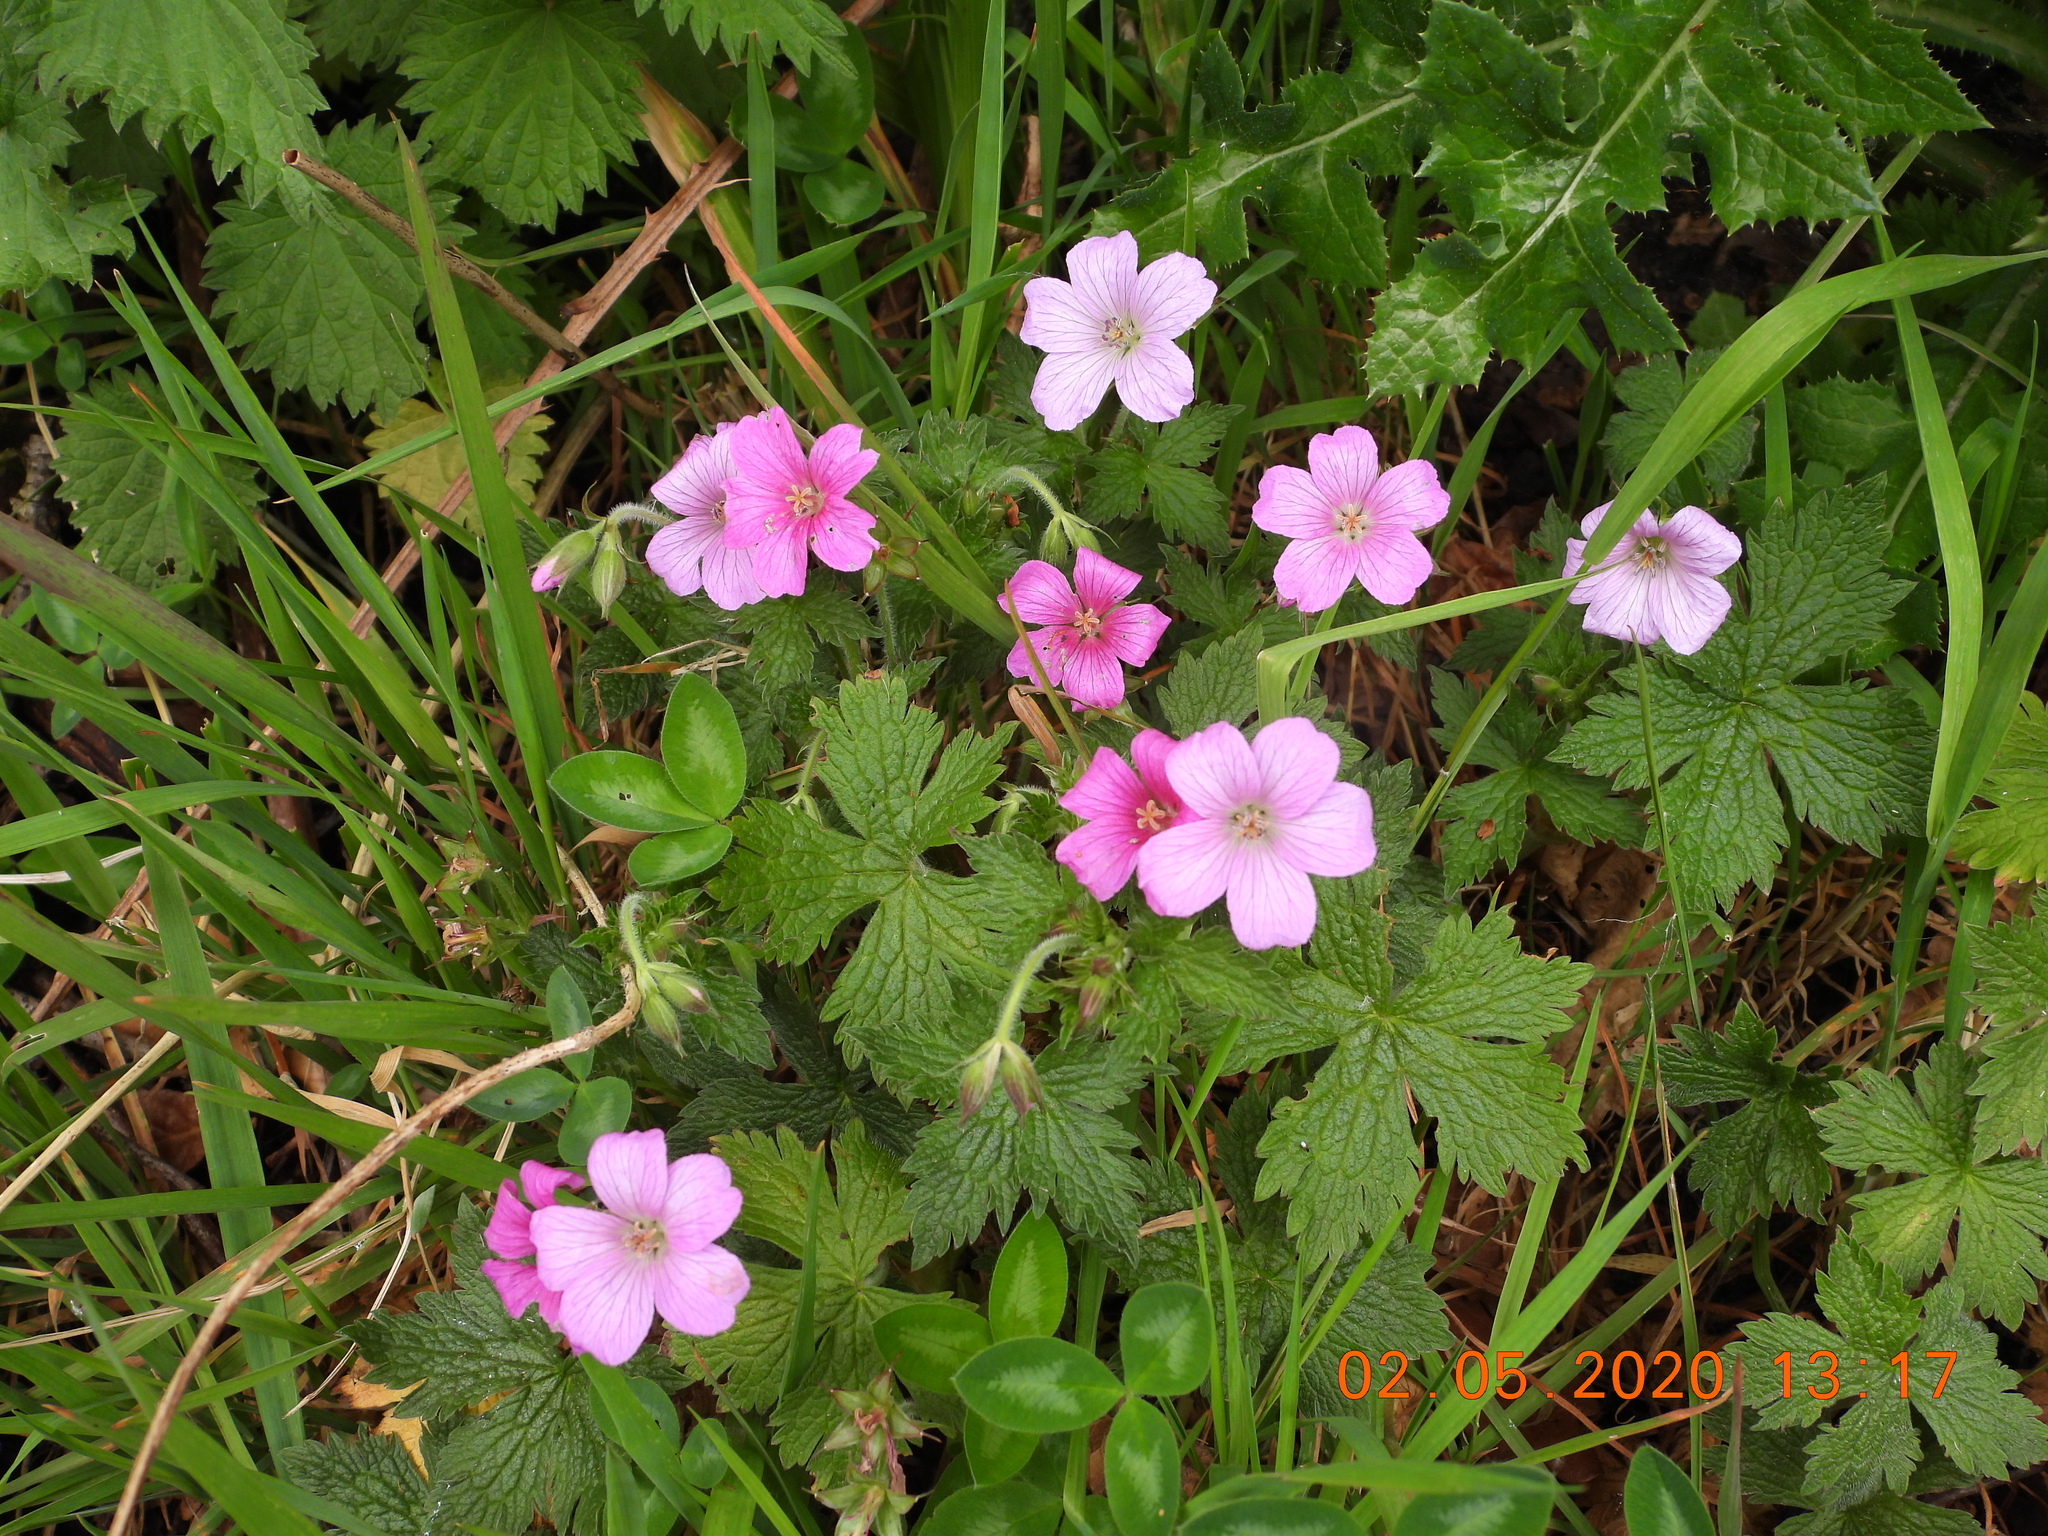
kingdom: Plantae
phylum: Tracheophyta
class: Magnoliopsida
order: Geraniales
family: Geraniaceae
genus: Geranium
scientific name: Geranium oxonianum
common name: Druce's crane's-bill
